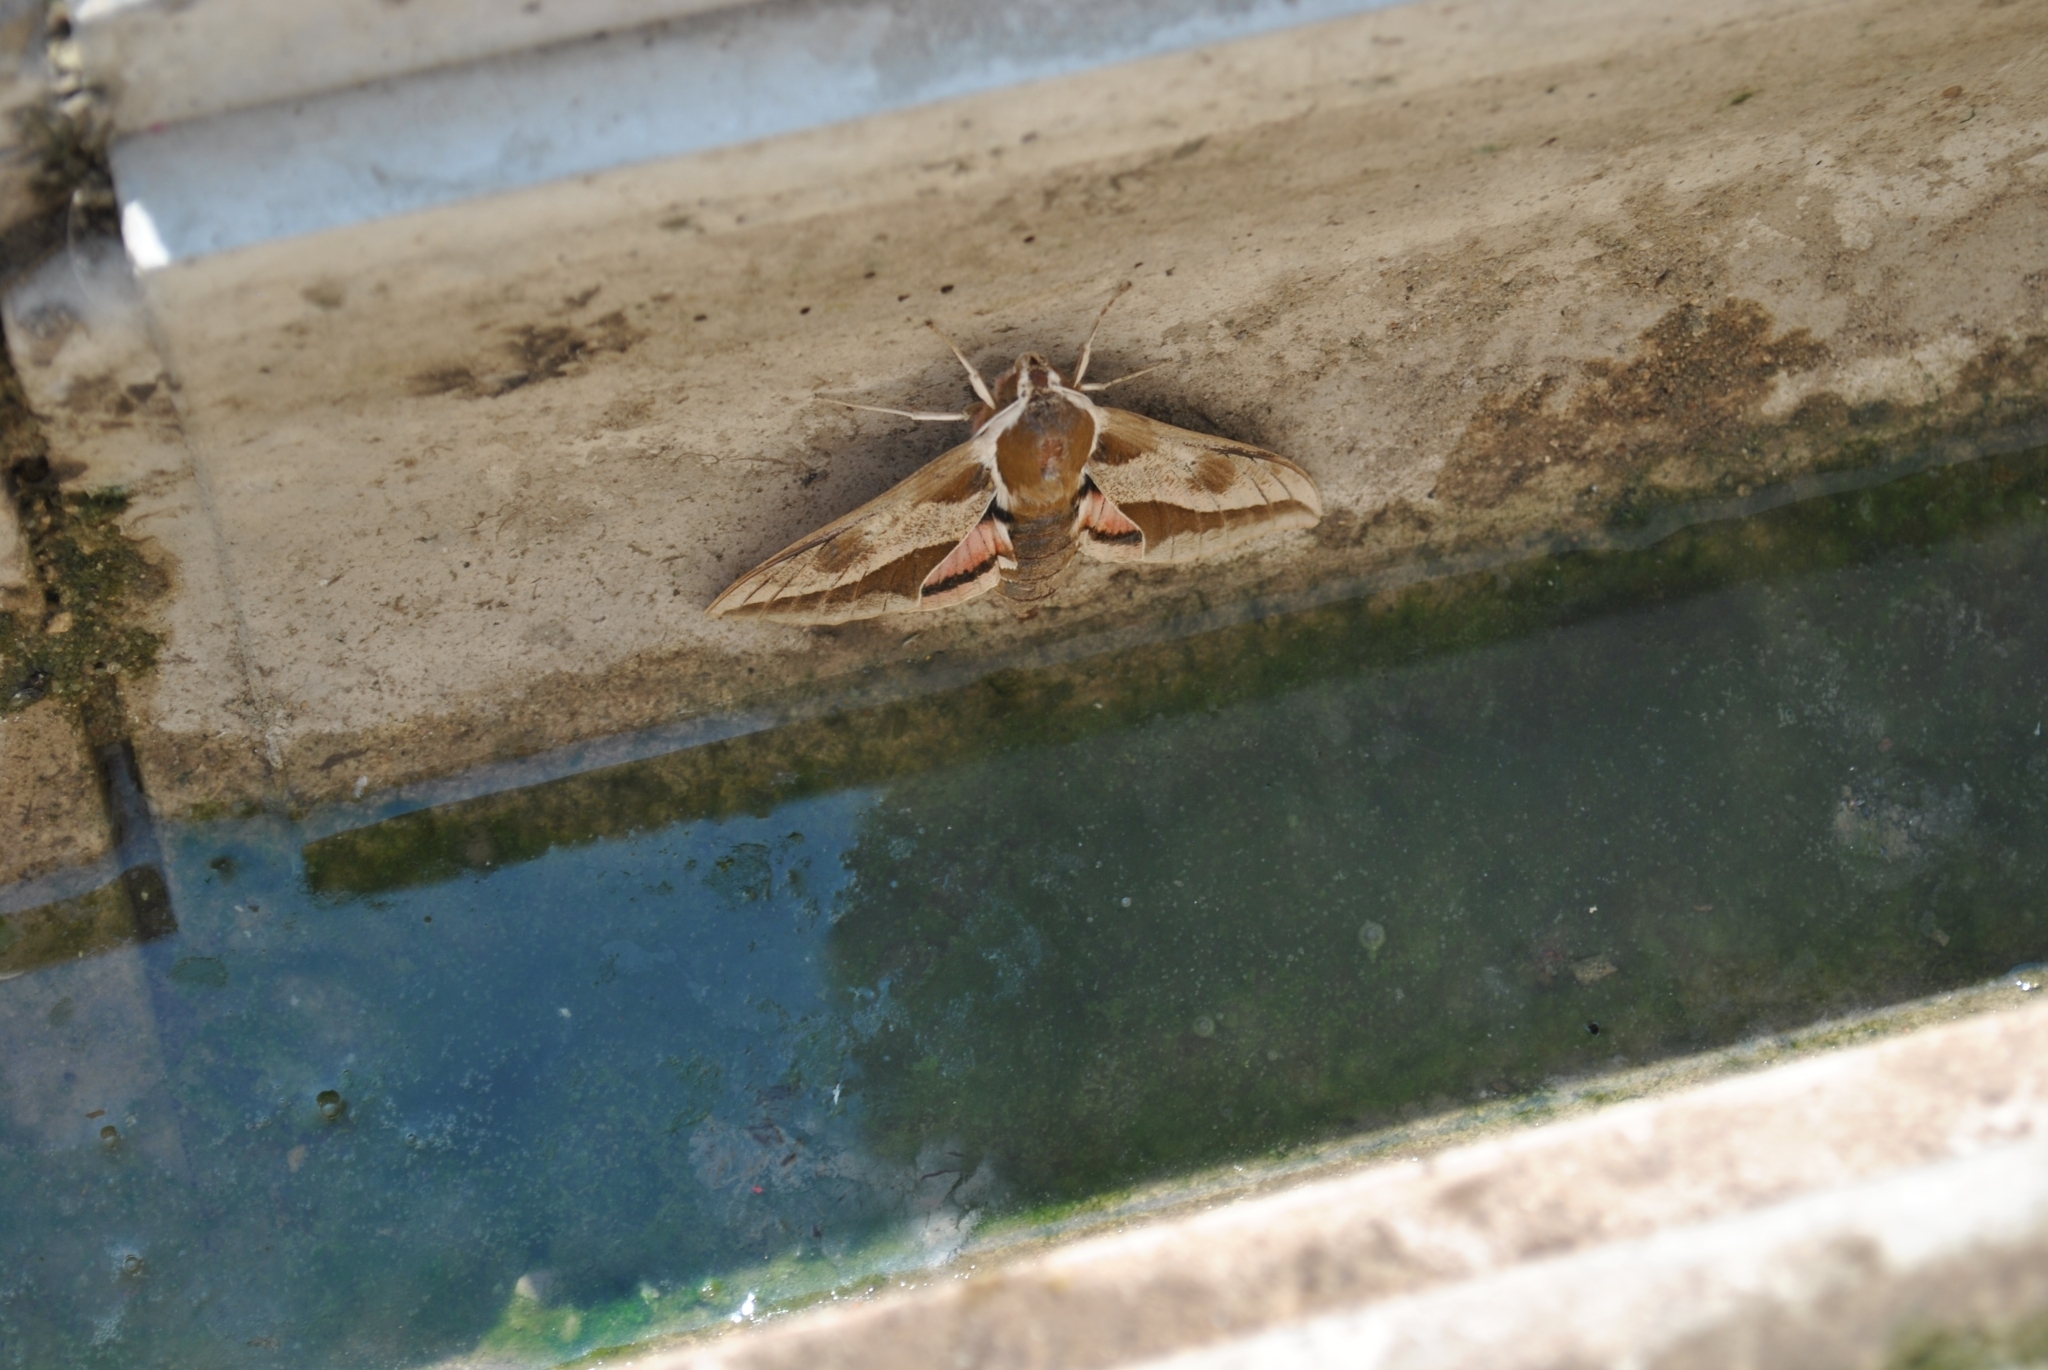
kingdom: Animalia
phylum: Arthropoda
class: Insecta
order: Lepidoptera
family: Sphingidae
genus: Hyles
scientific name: Hyles euphorbiae
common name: Spurge hawk-moth
